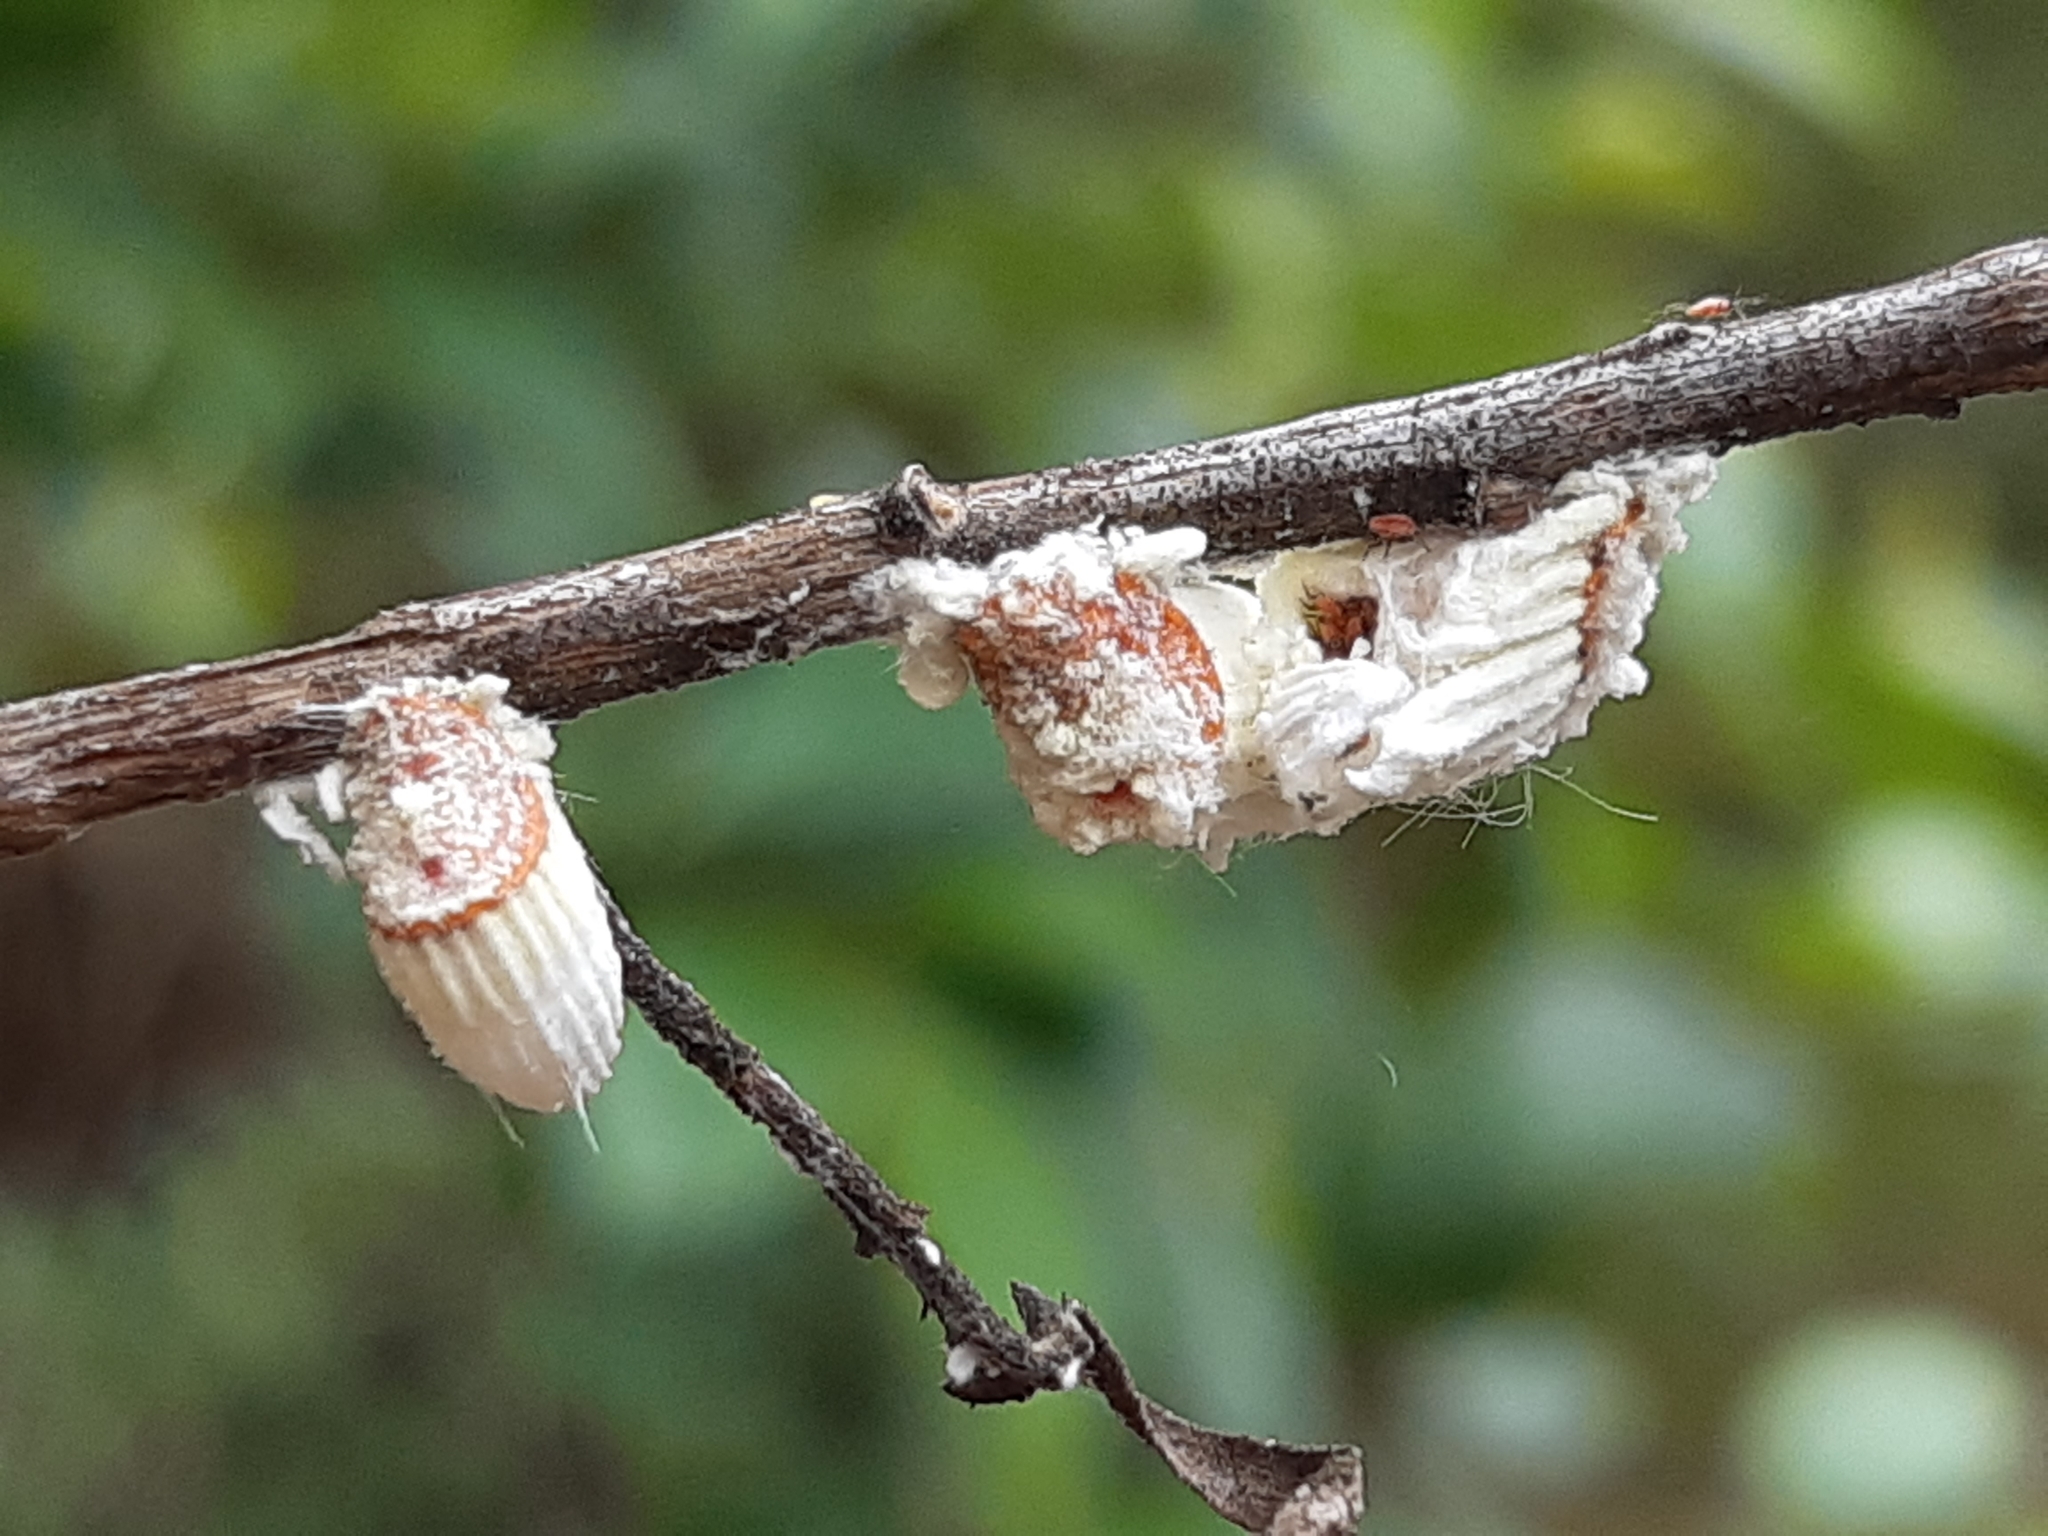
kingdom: Animalia
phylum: Arthropoda
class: Insecta
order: Hemiptera
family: Margarodidae
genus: Icerya
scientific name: Icerya purchasi
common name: Cottony cushion scale
